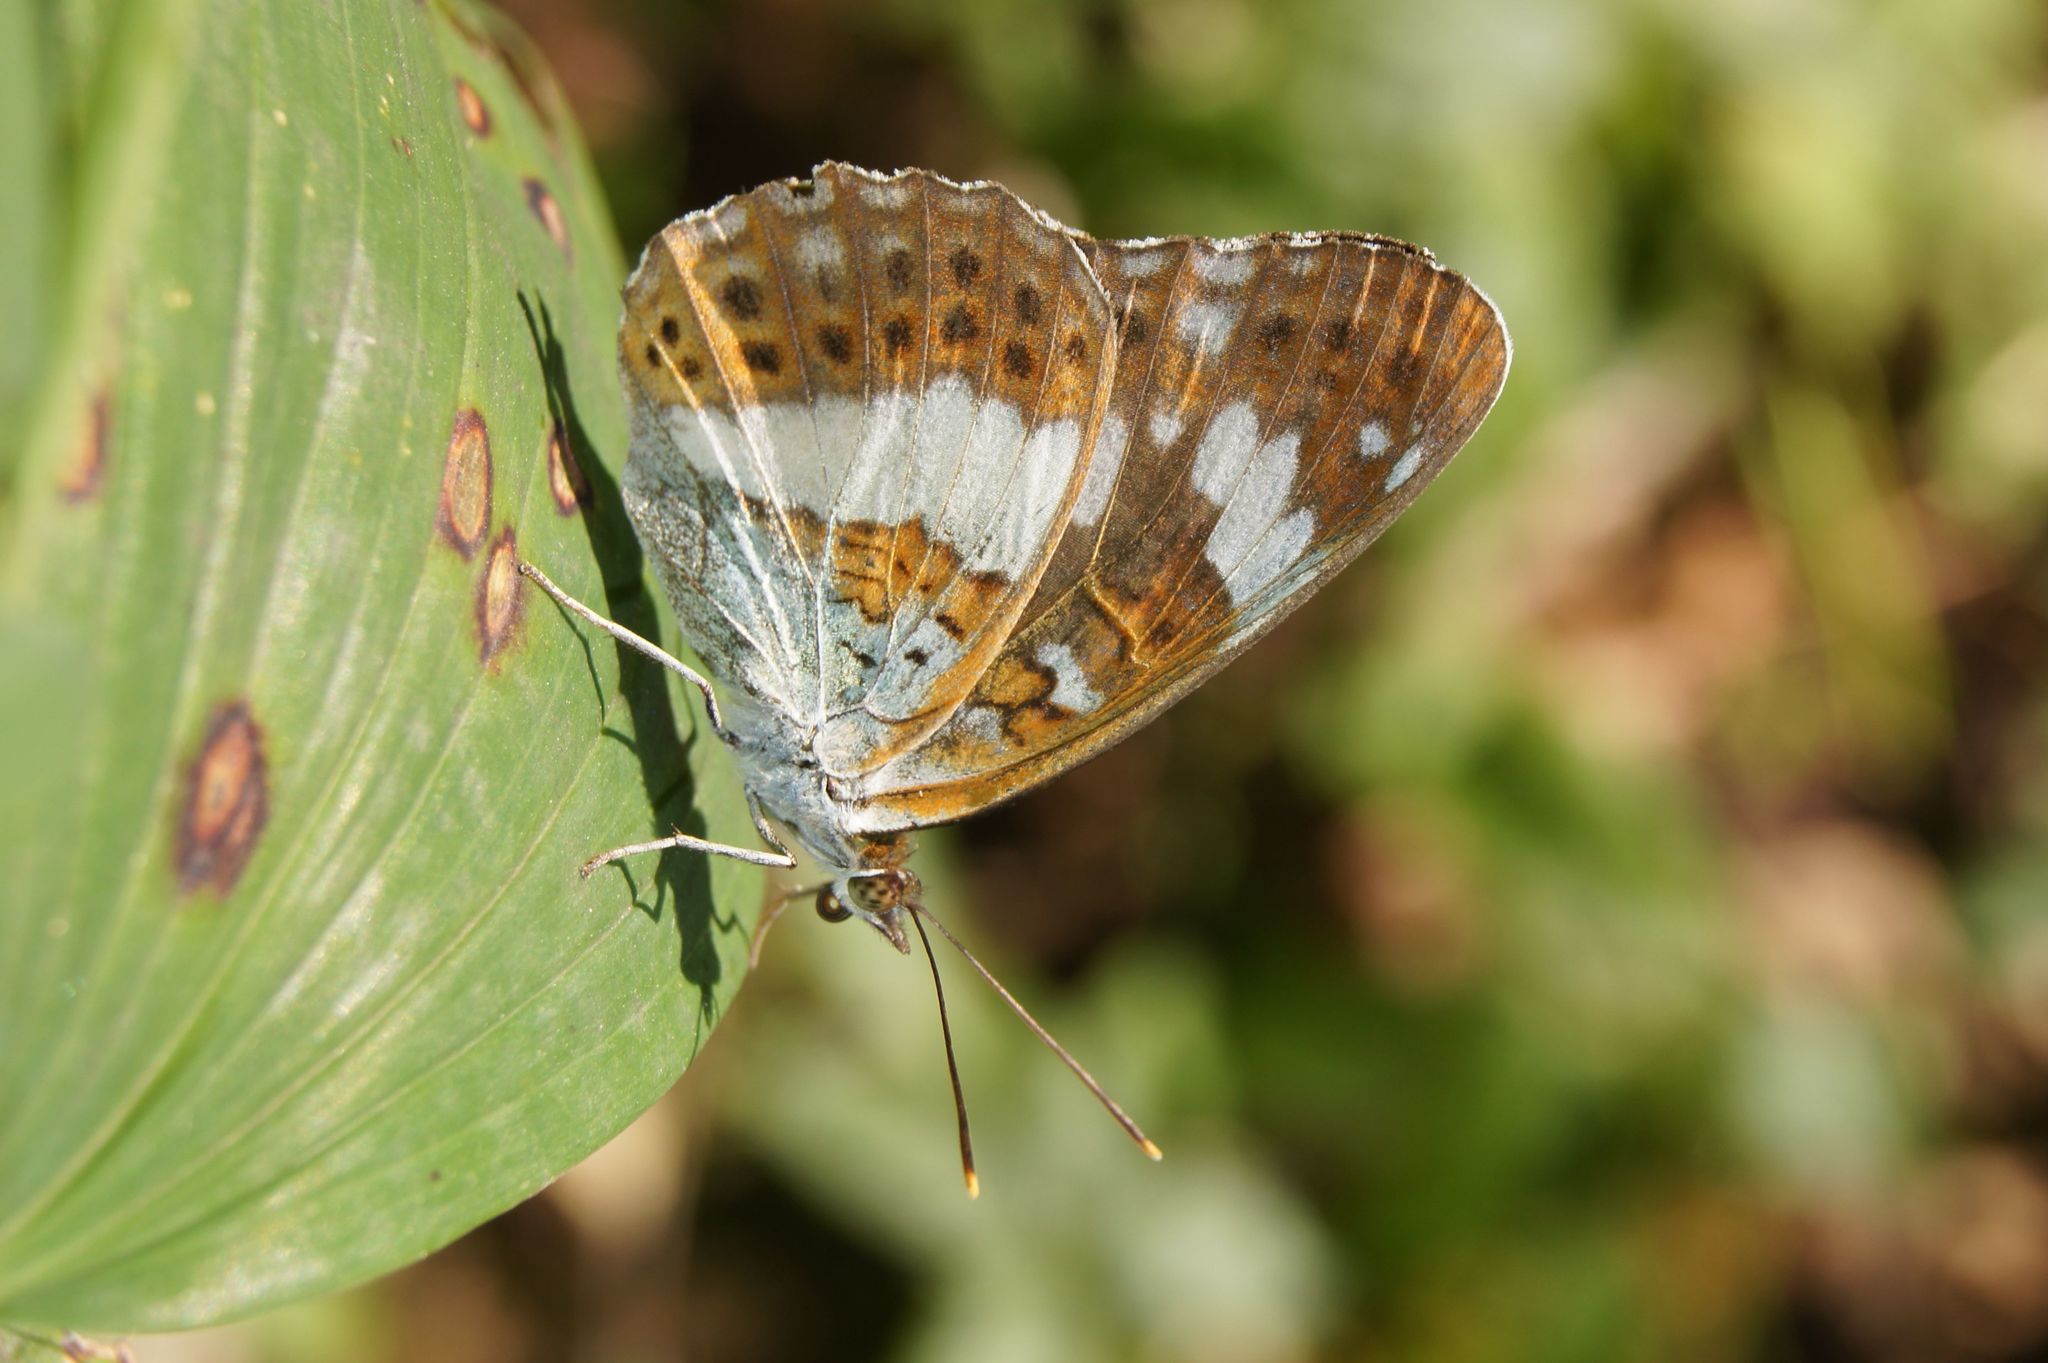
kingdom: Animalia
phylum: Arthropoda
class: Insecta
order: Lepidoptera
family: Nymphalidae
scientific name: Nymphalidae
